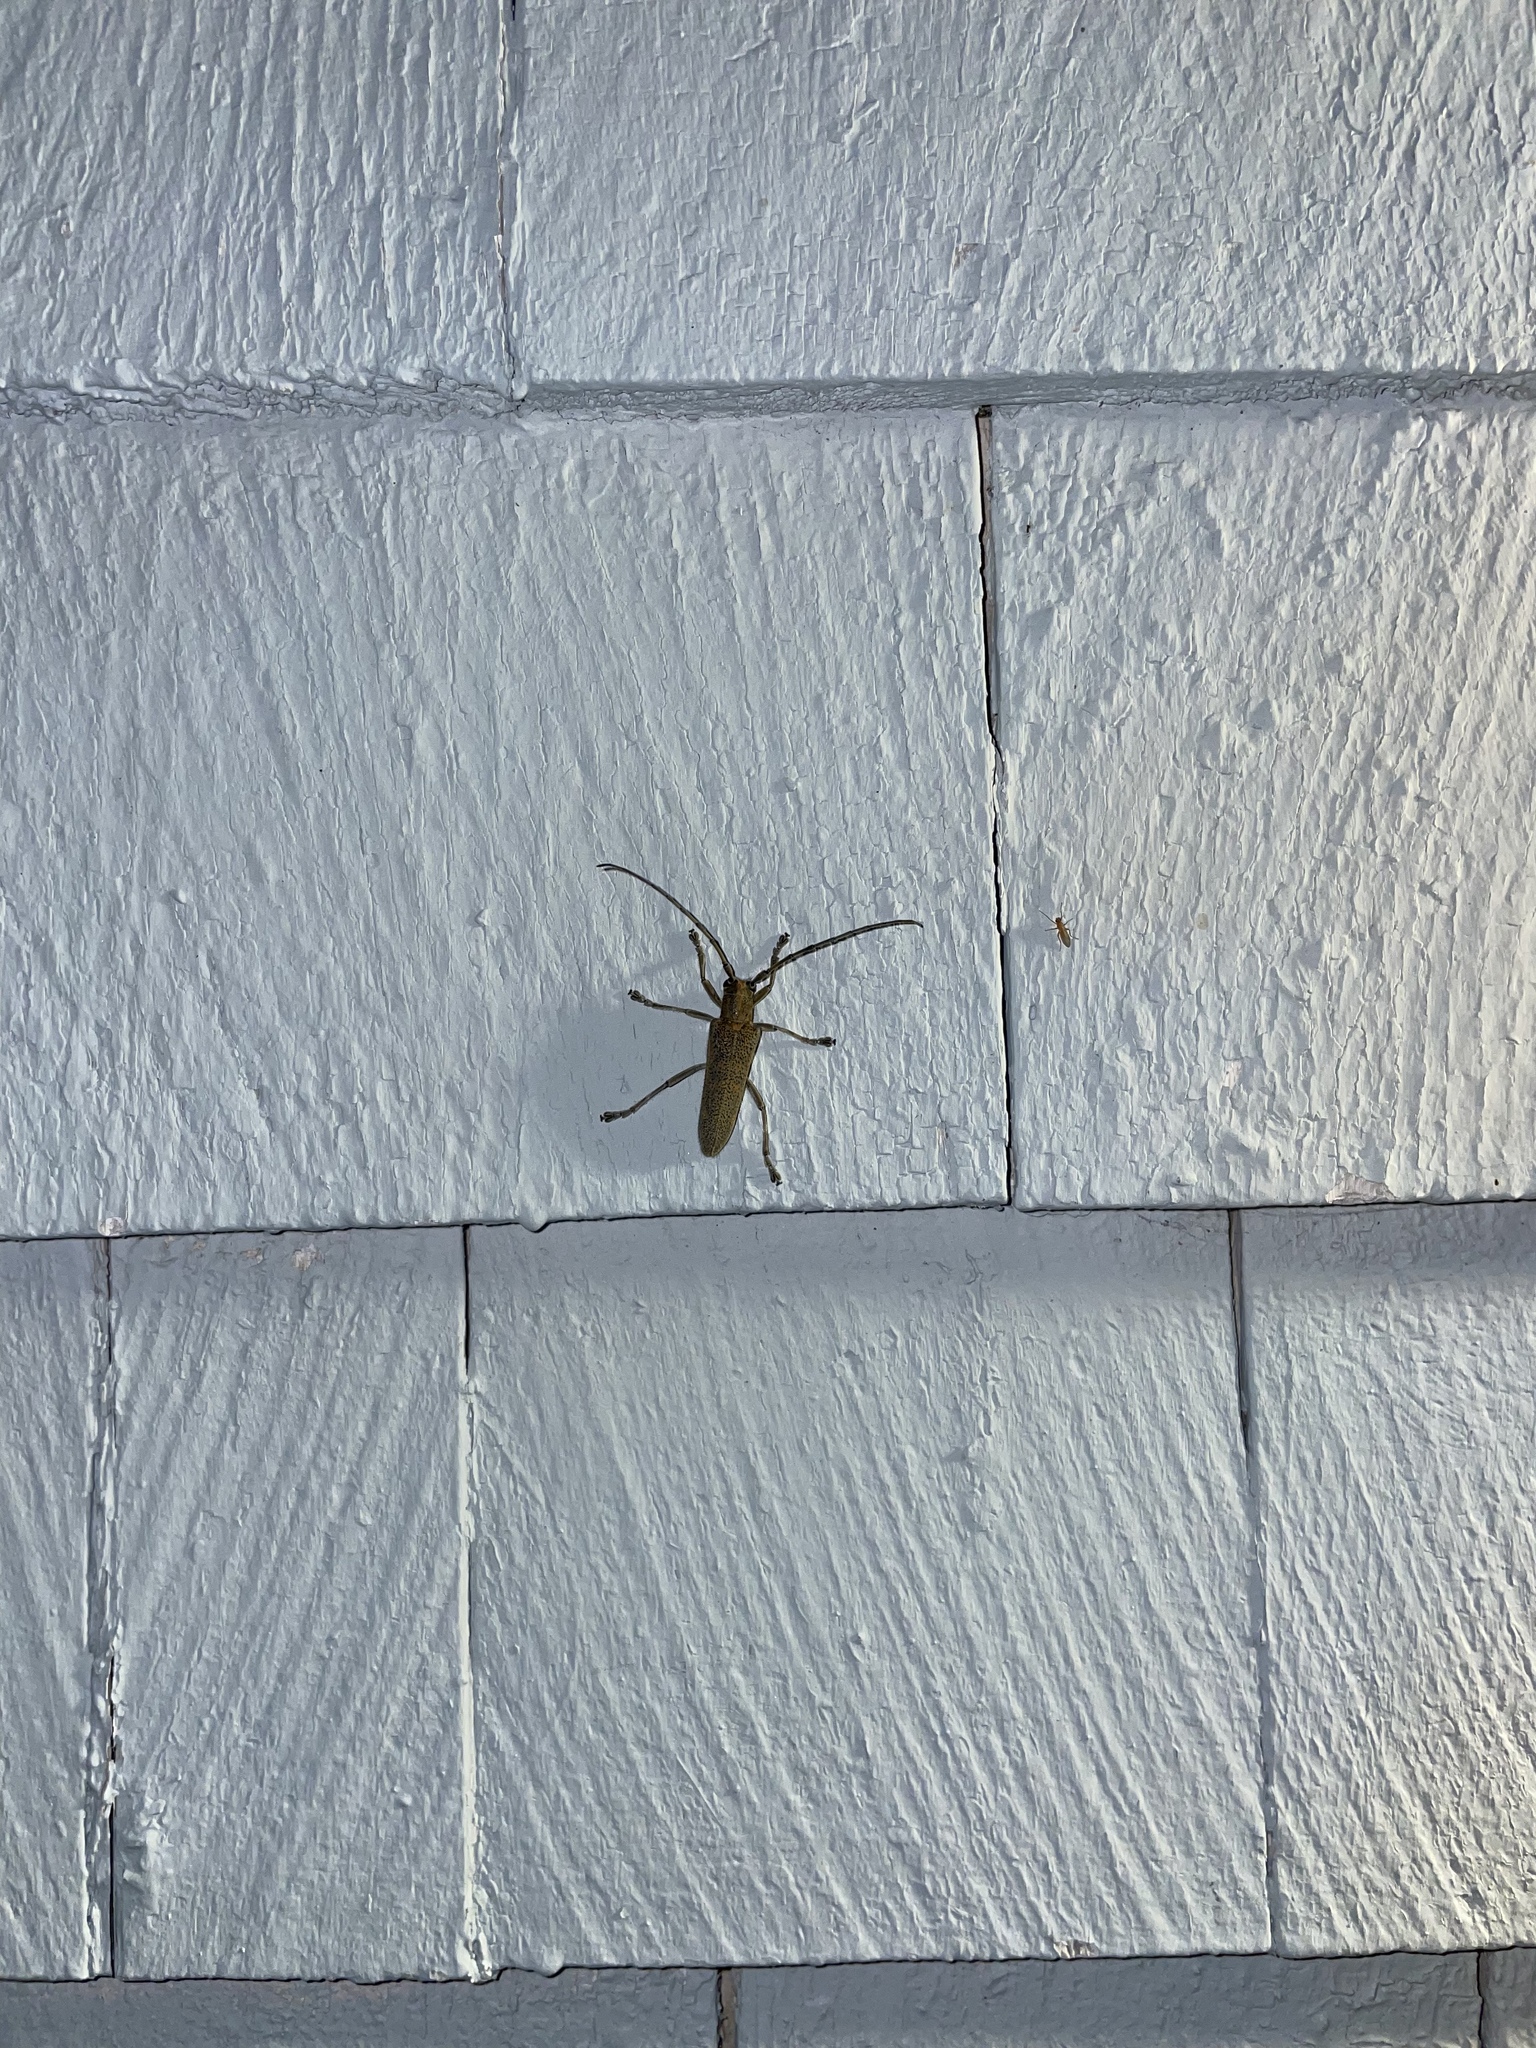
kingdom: Animalia
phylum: Arthropoda
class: Insecta
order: Coleoptera
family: Cerambycidae
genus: Saperda
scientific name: Saperda calcarata
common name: Poplar borer
